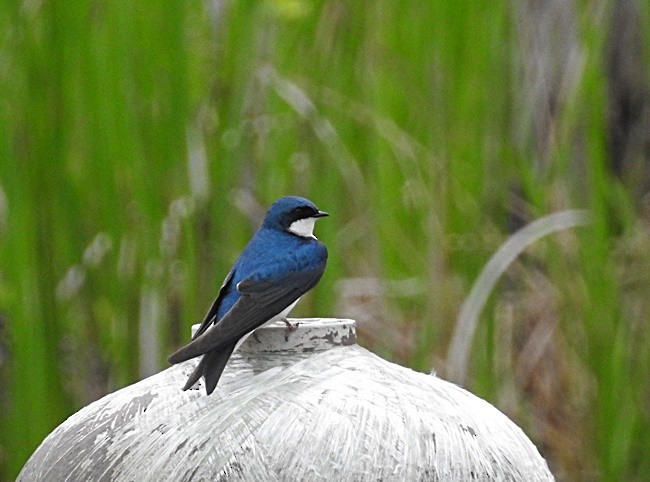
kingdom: Animalia
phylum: Chordata
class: Aves
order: Passeriformes
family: Hirundinidae
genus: Tachycineta
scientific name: Tachycineta bicolor
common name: Tree swallow
